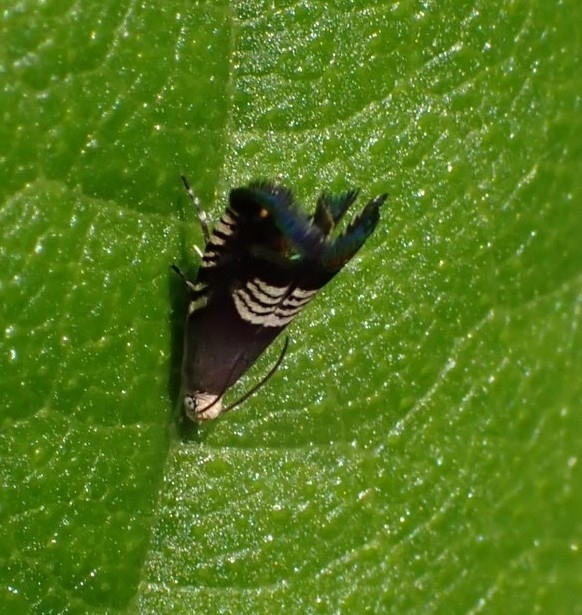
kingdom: Animalia
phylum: Arthropoda
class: Insecta
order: Lepidoptera
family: Tortricidae
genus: Grapholita
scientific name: Grapholita compositella
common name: Triple-stripe piercer
